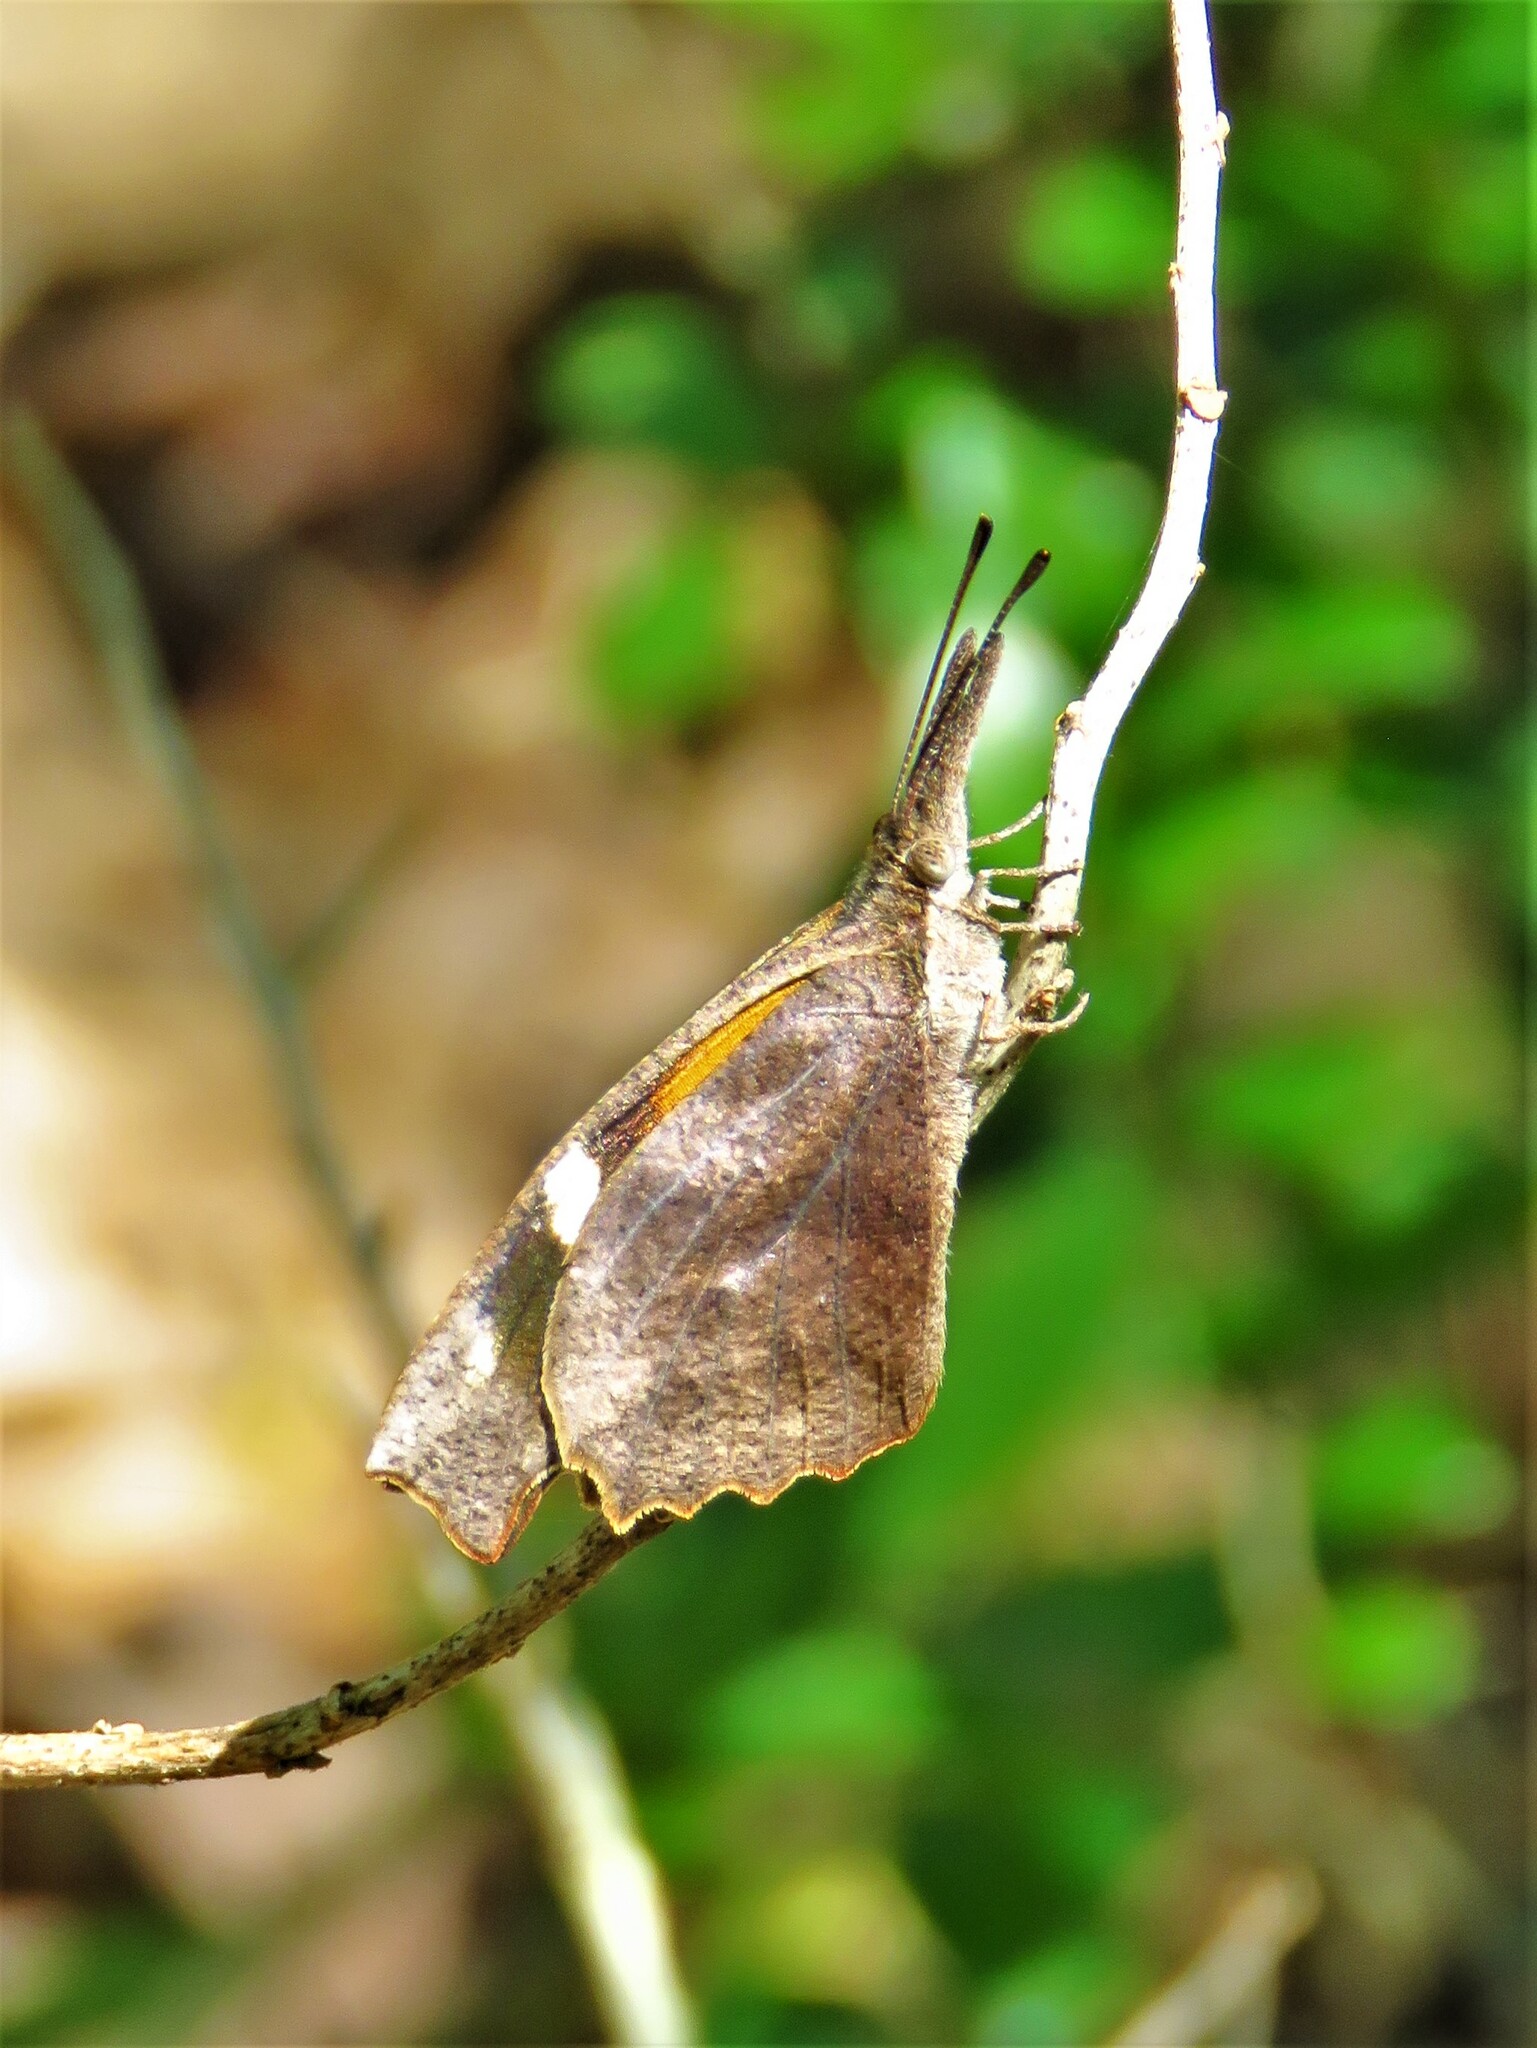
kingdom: Animalia
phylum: Arthropoda
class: Insecta
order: Lepidoptera
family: Nymphalidae
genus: Libytheana
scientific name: Libytheana carinenta
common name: American snout
